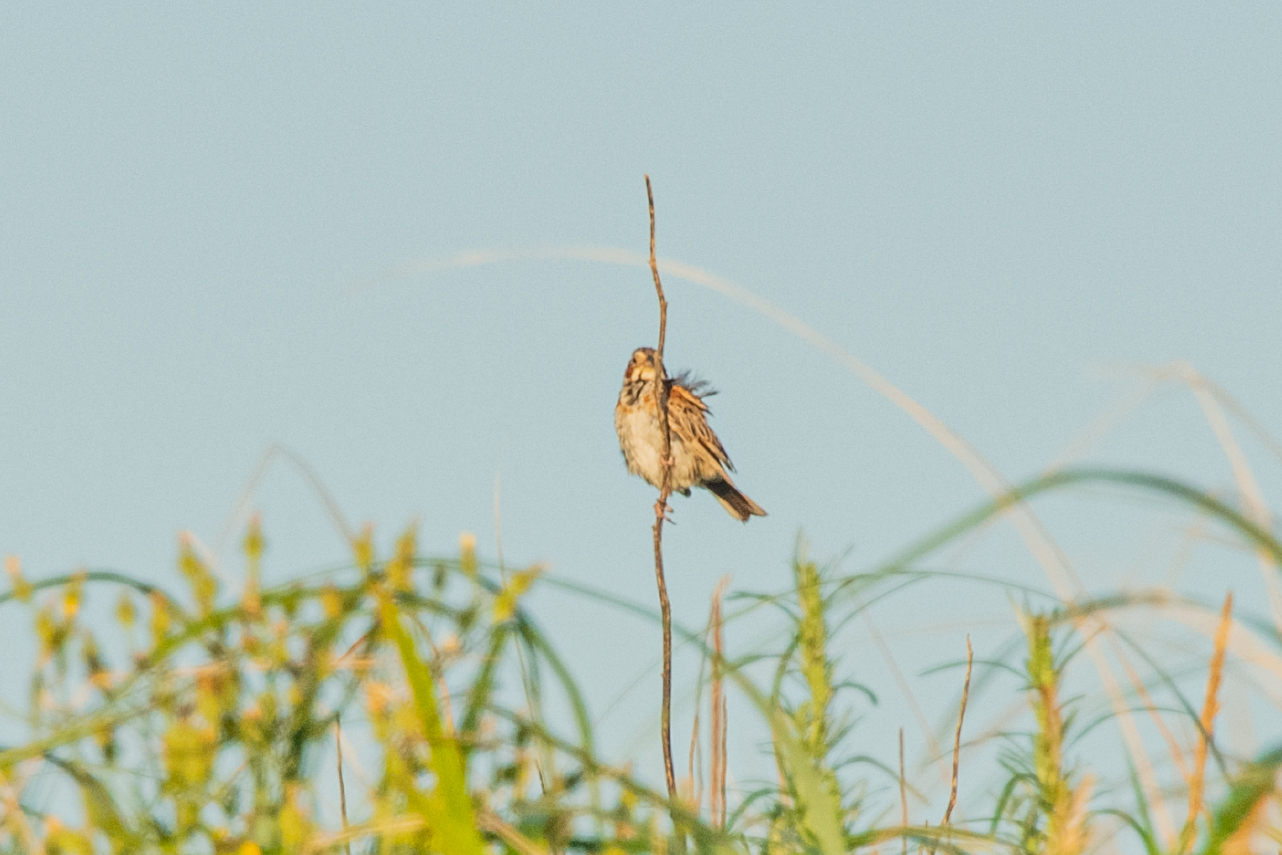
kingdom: Animalia
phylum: Chordata
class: Aves
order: Passeriformes
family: Emberizidae
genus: Emberiza
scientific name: Emberiza fucata
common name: Chestnut-eared bunting
